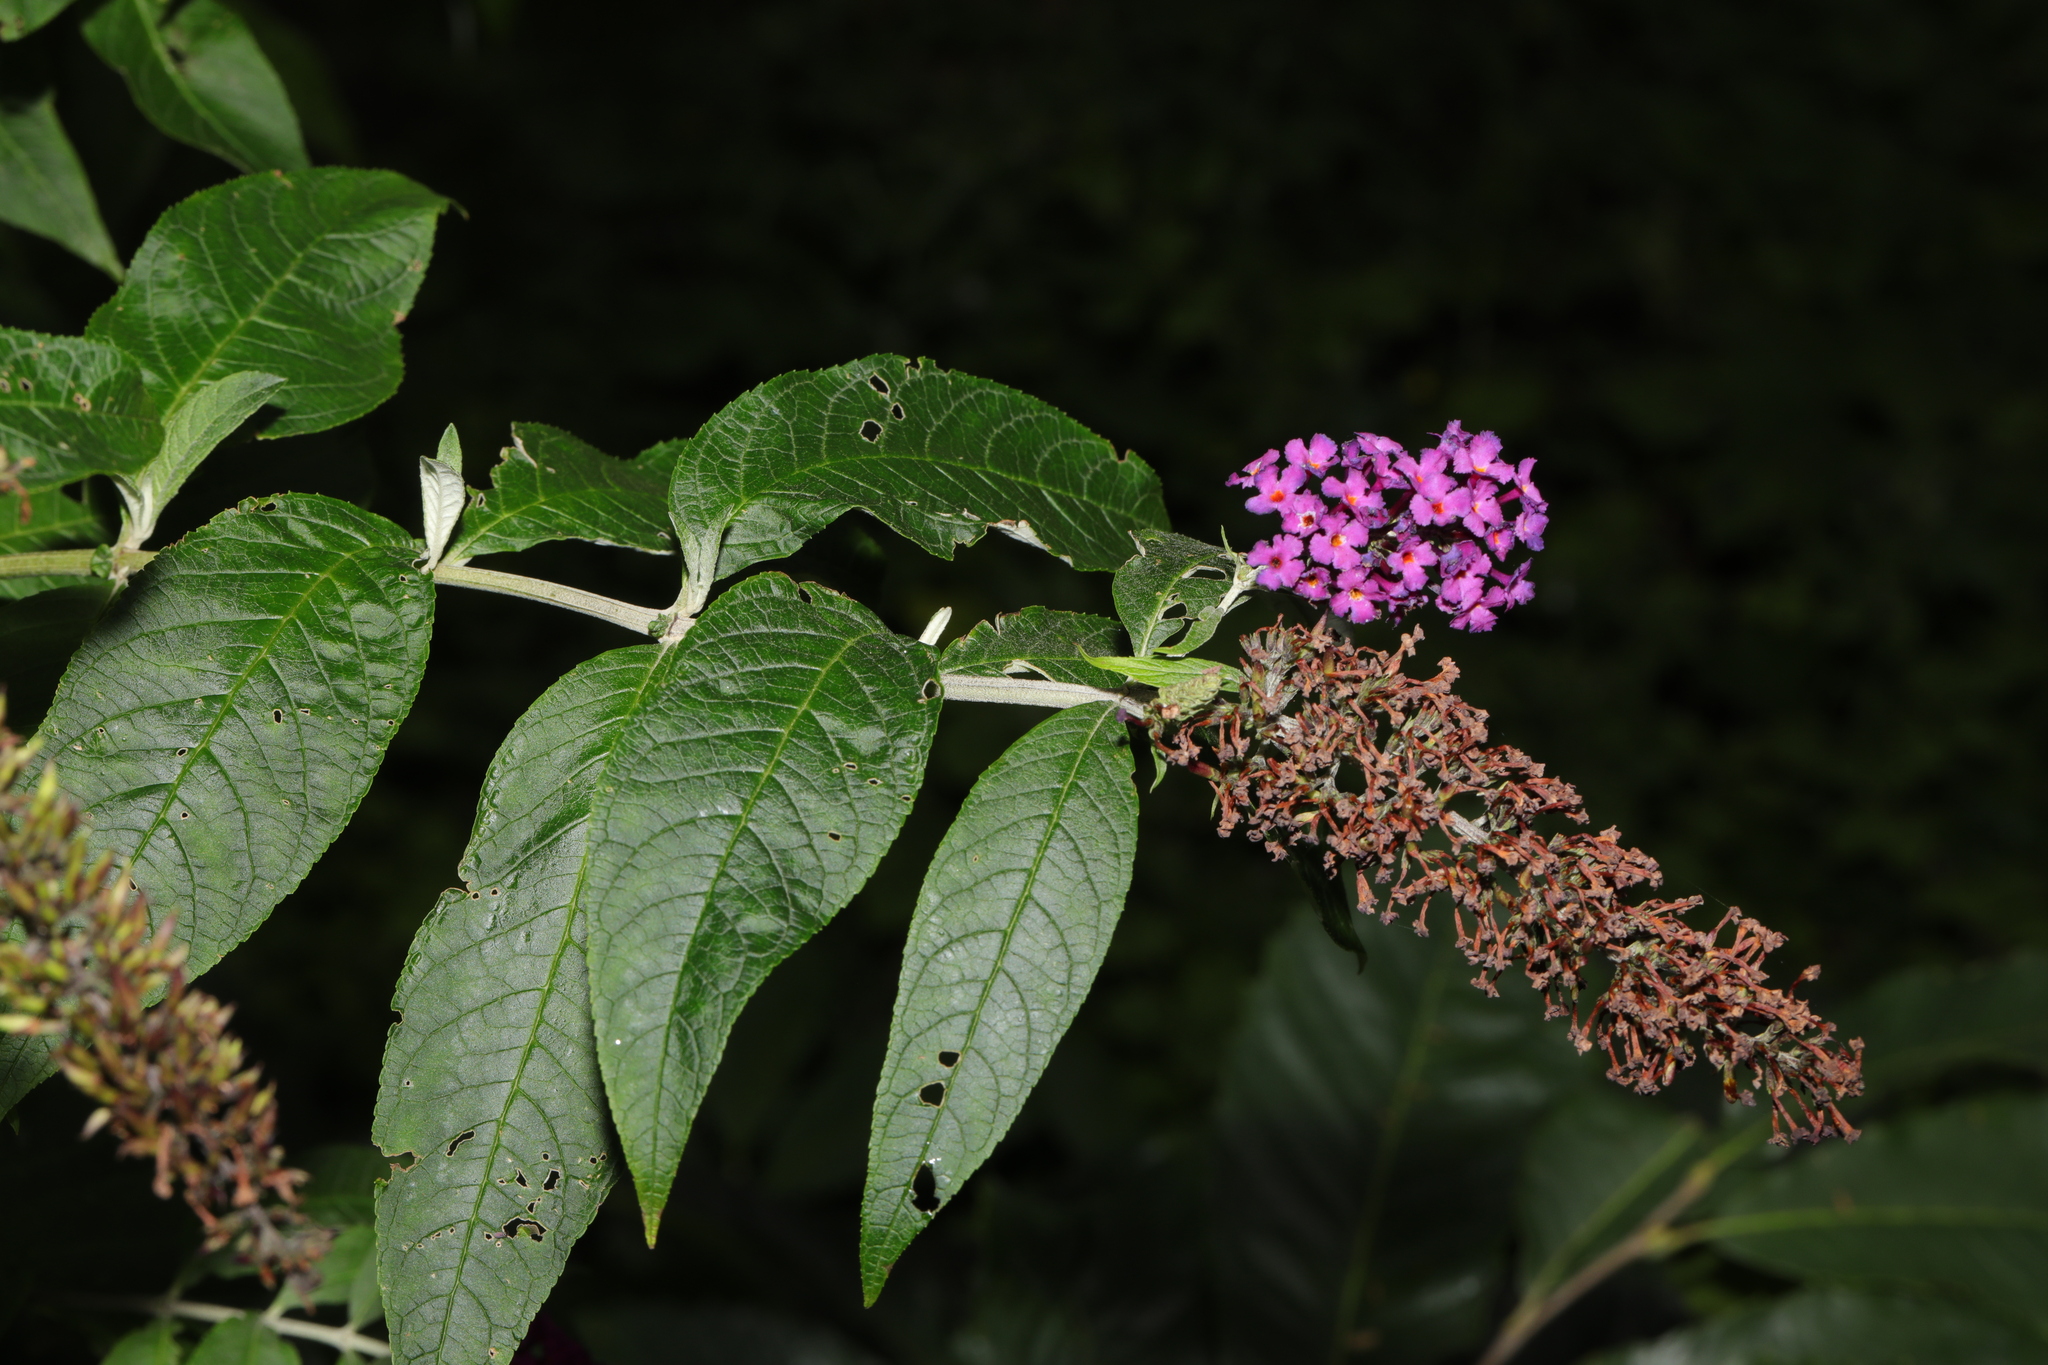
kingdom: Plantae
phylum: Tracheophyta
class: Magnoliopsida
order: Lamiales
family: Scrophulariaceae
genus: Buddleja
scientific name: Buddleja davidii
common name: Butterfly-bush
